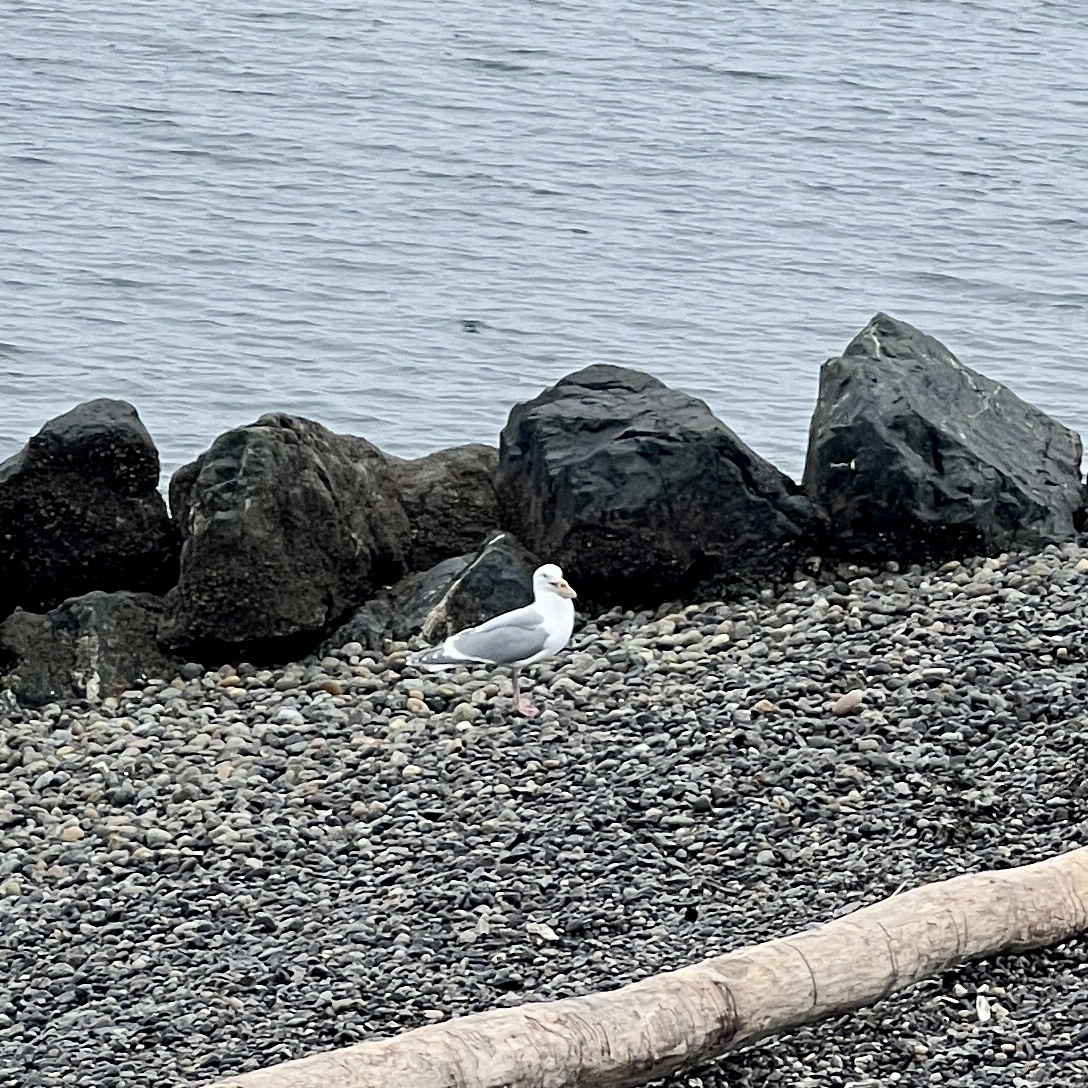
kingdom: Animalia
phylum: Chordata
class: Aves
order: Charadriiformes
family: Laridae
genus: Larus
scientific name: Larus glaucescens
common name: Glaucous-winged gull
